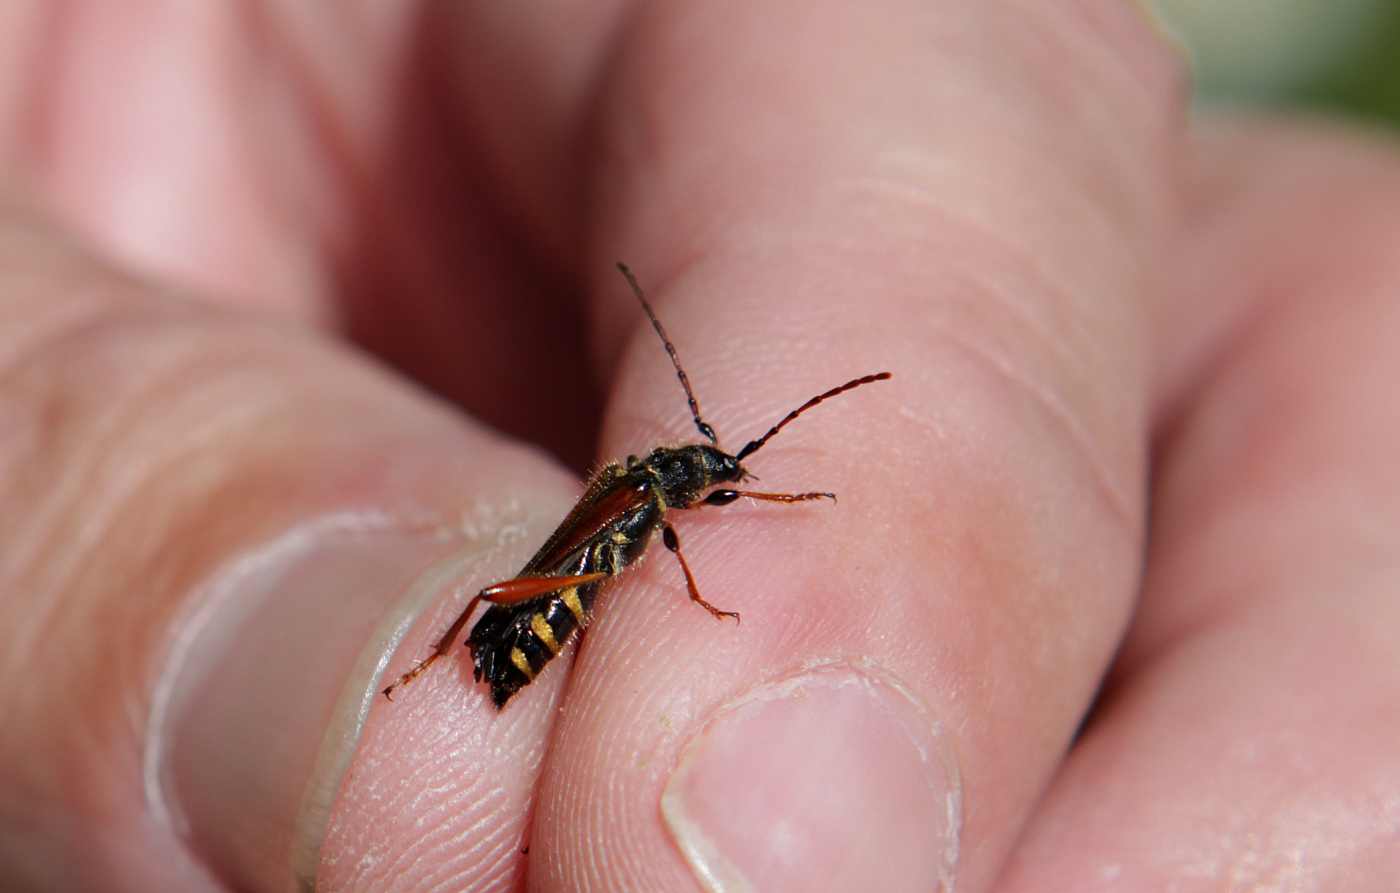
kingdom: Animalia
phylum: Arthropoda
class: Insecta
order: Coleoptera
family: Cerambycidae
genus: Stenopterus
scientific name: Stenopterus rufus
